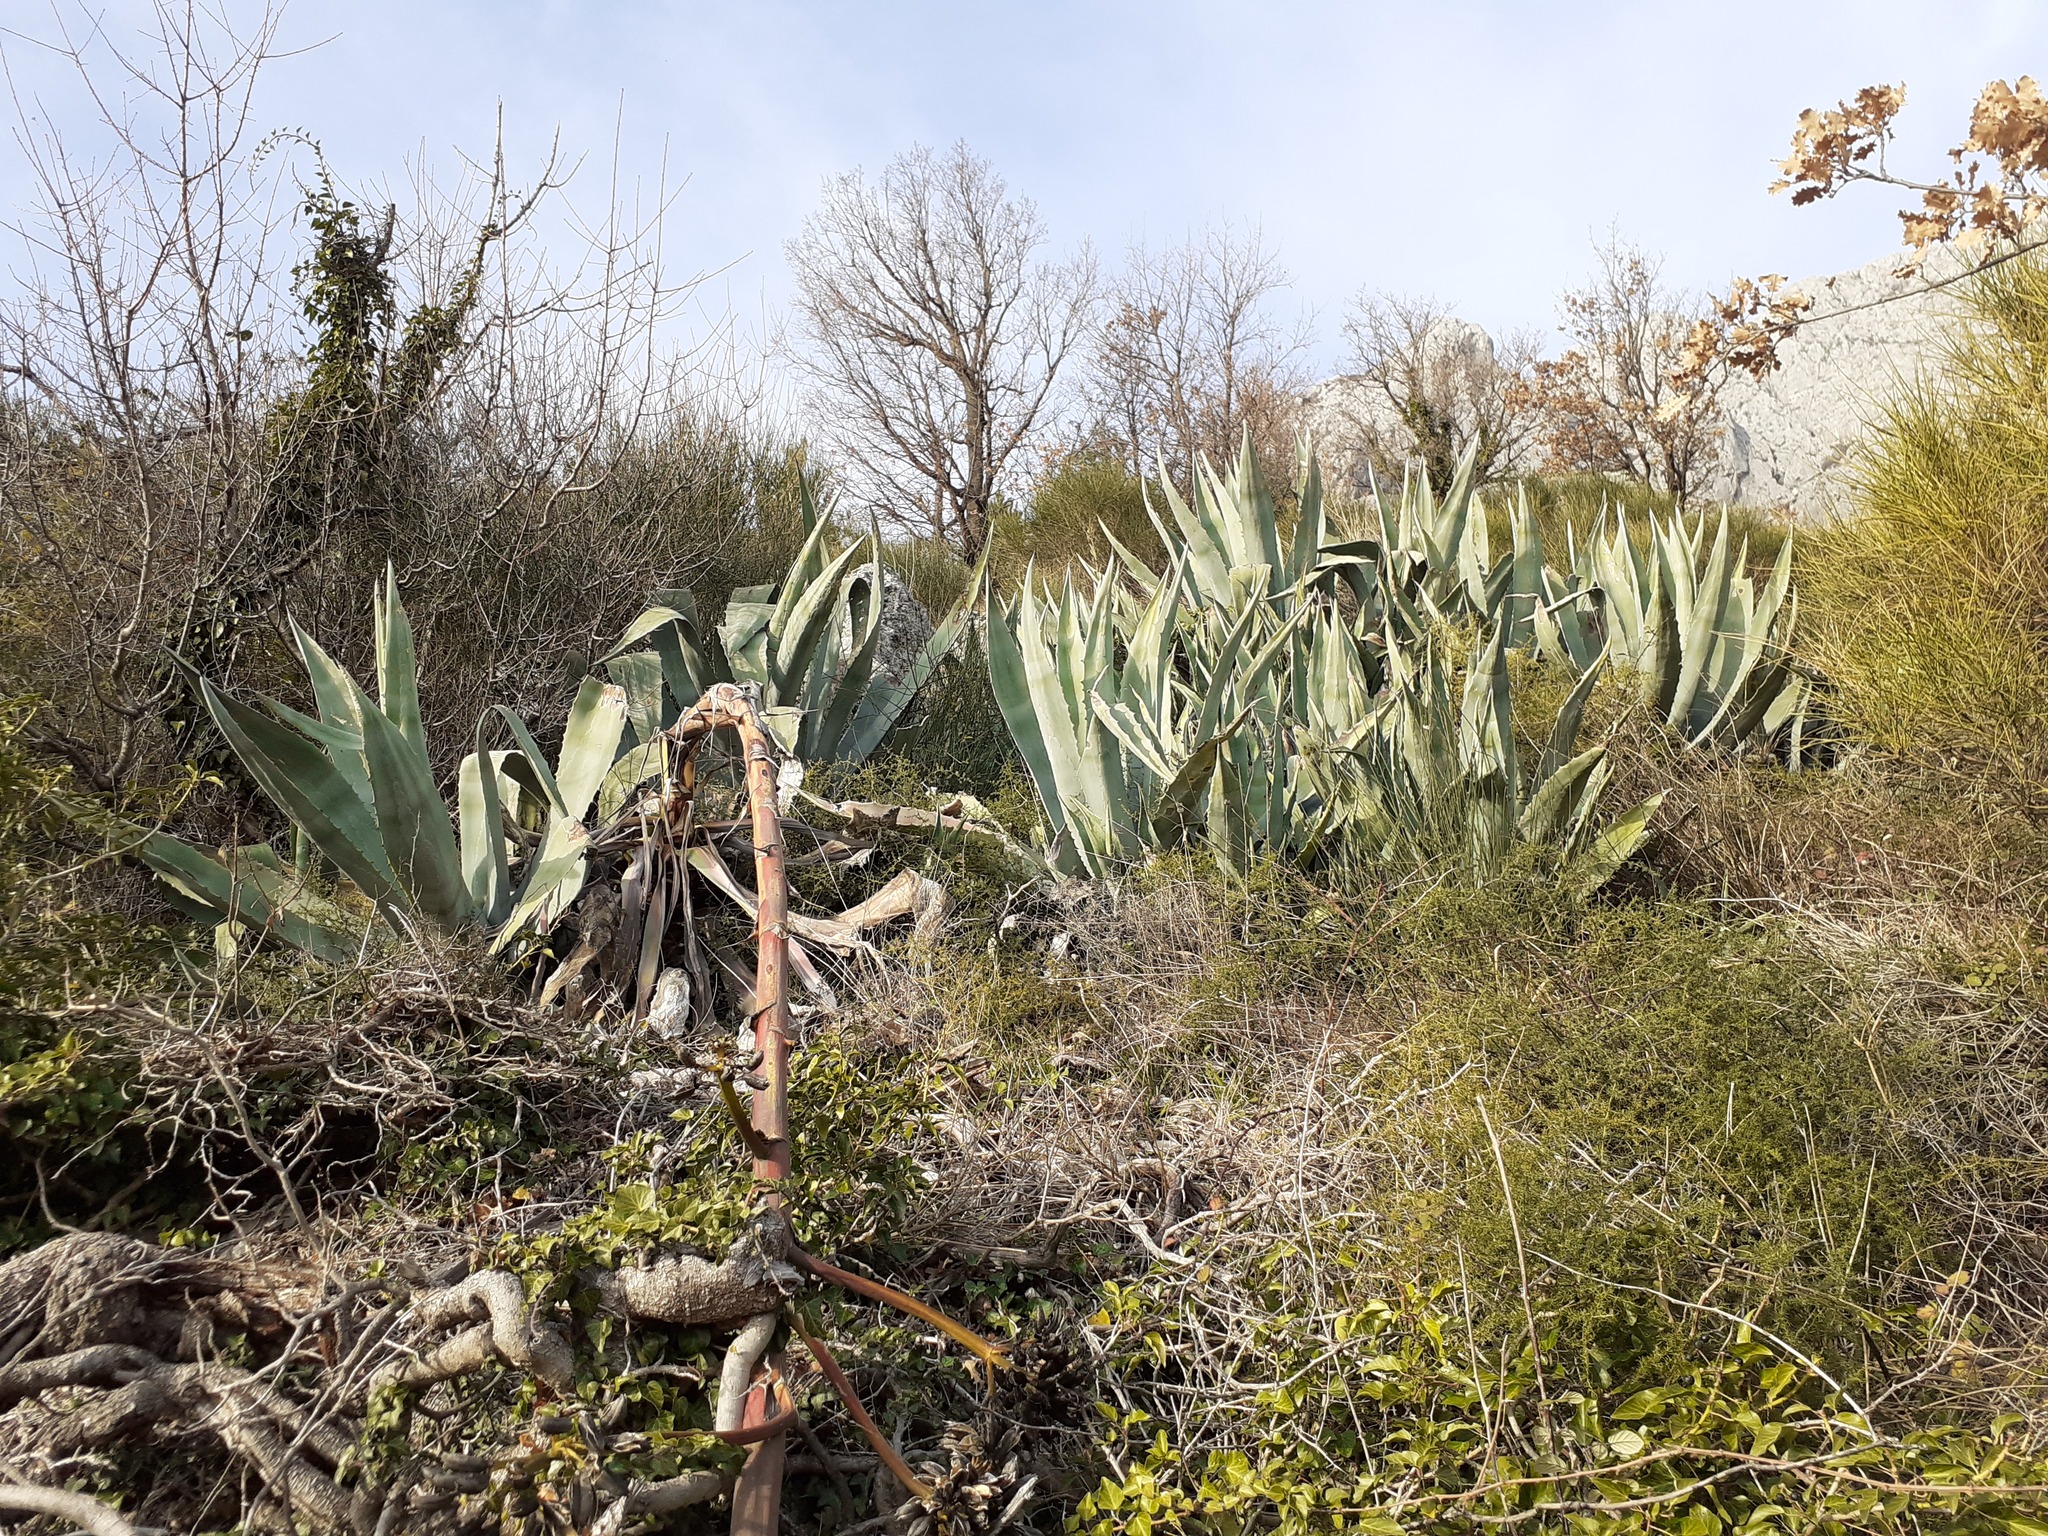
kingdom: Plantae
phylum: Tracheophyta
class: Liliopsida
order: Asparagales
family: Asparagaceae
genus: Agave
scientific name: Agave americana
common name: Centuryplant
